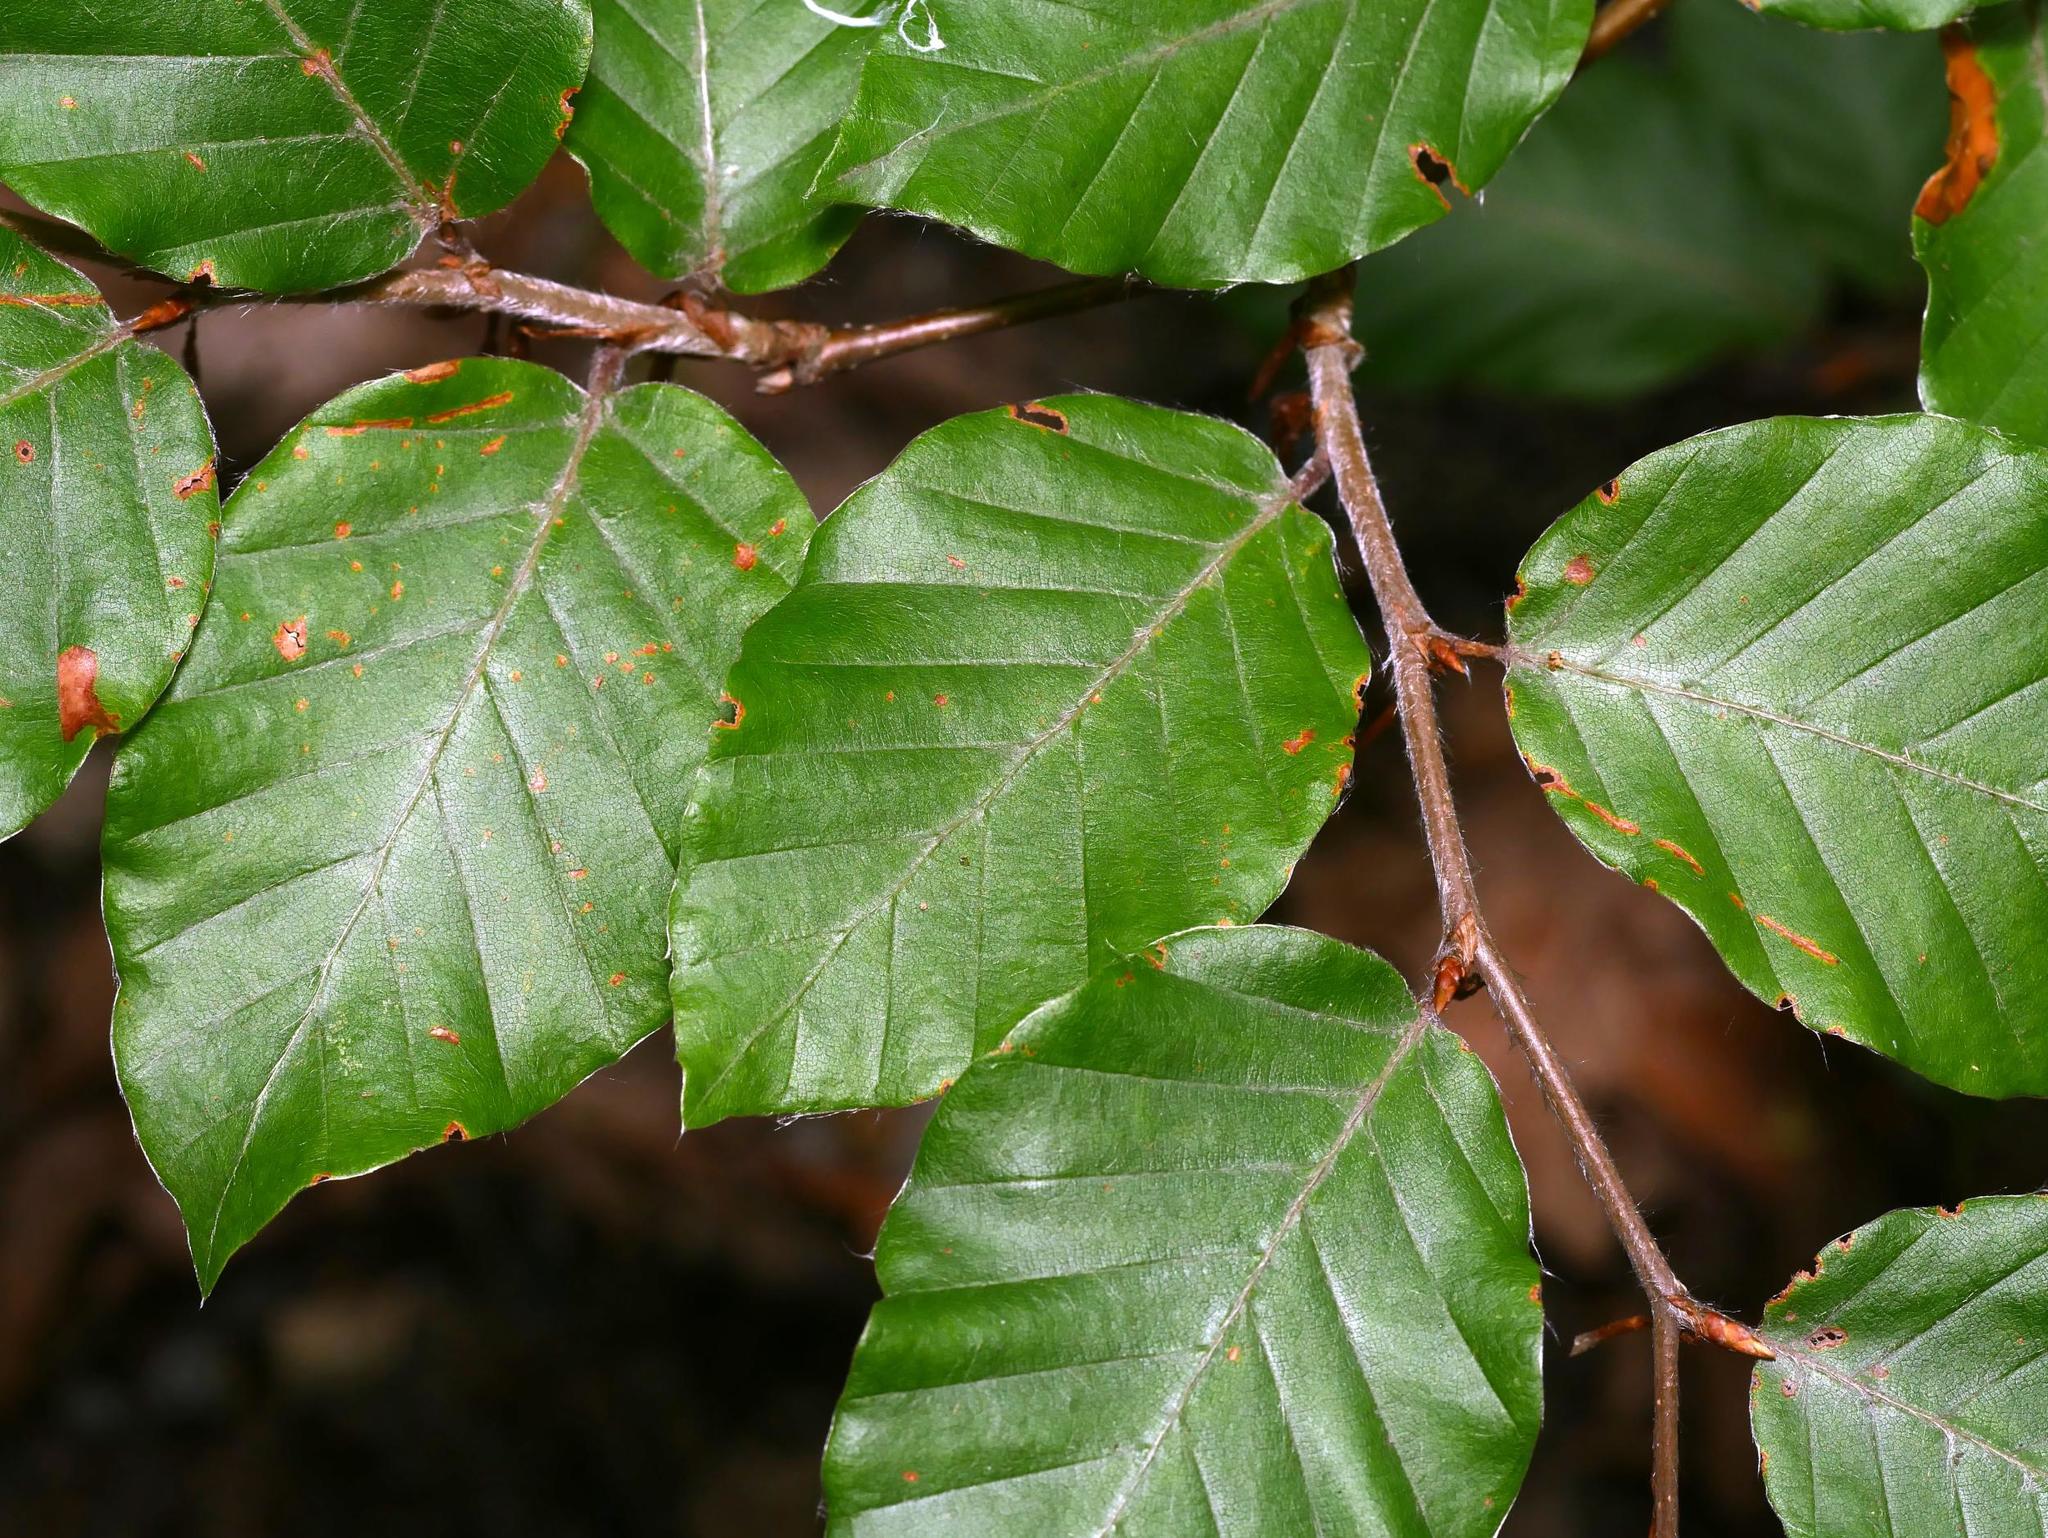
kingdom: Plantae
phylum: Tracheophyta
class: Magnoliopsida
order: Fagales
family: Fagaceae
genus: Fagus
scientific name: Fagus sylvatica
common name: Beech
